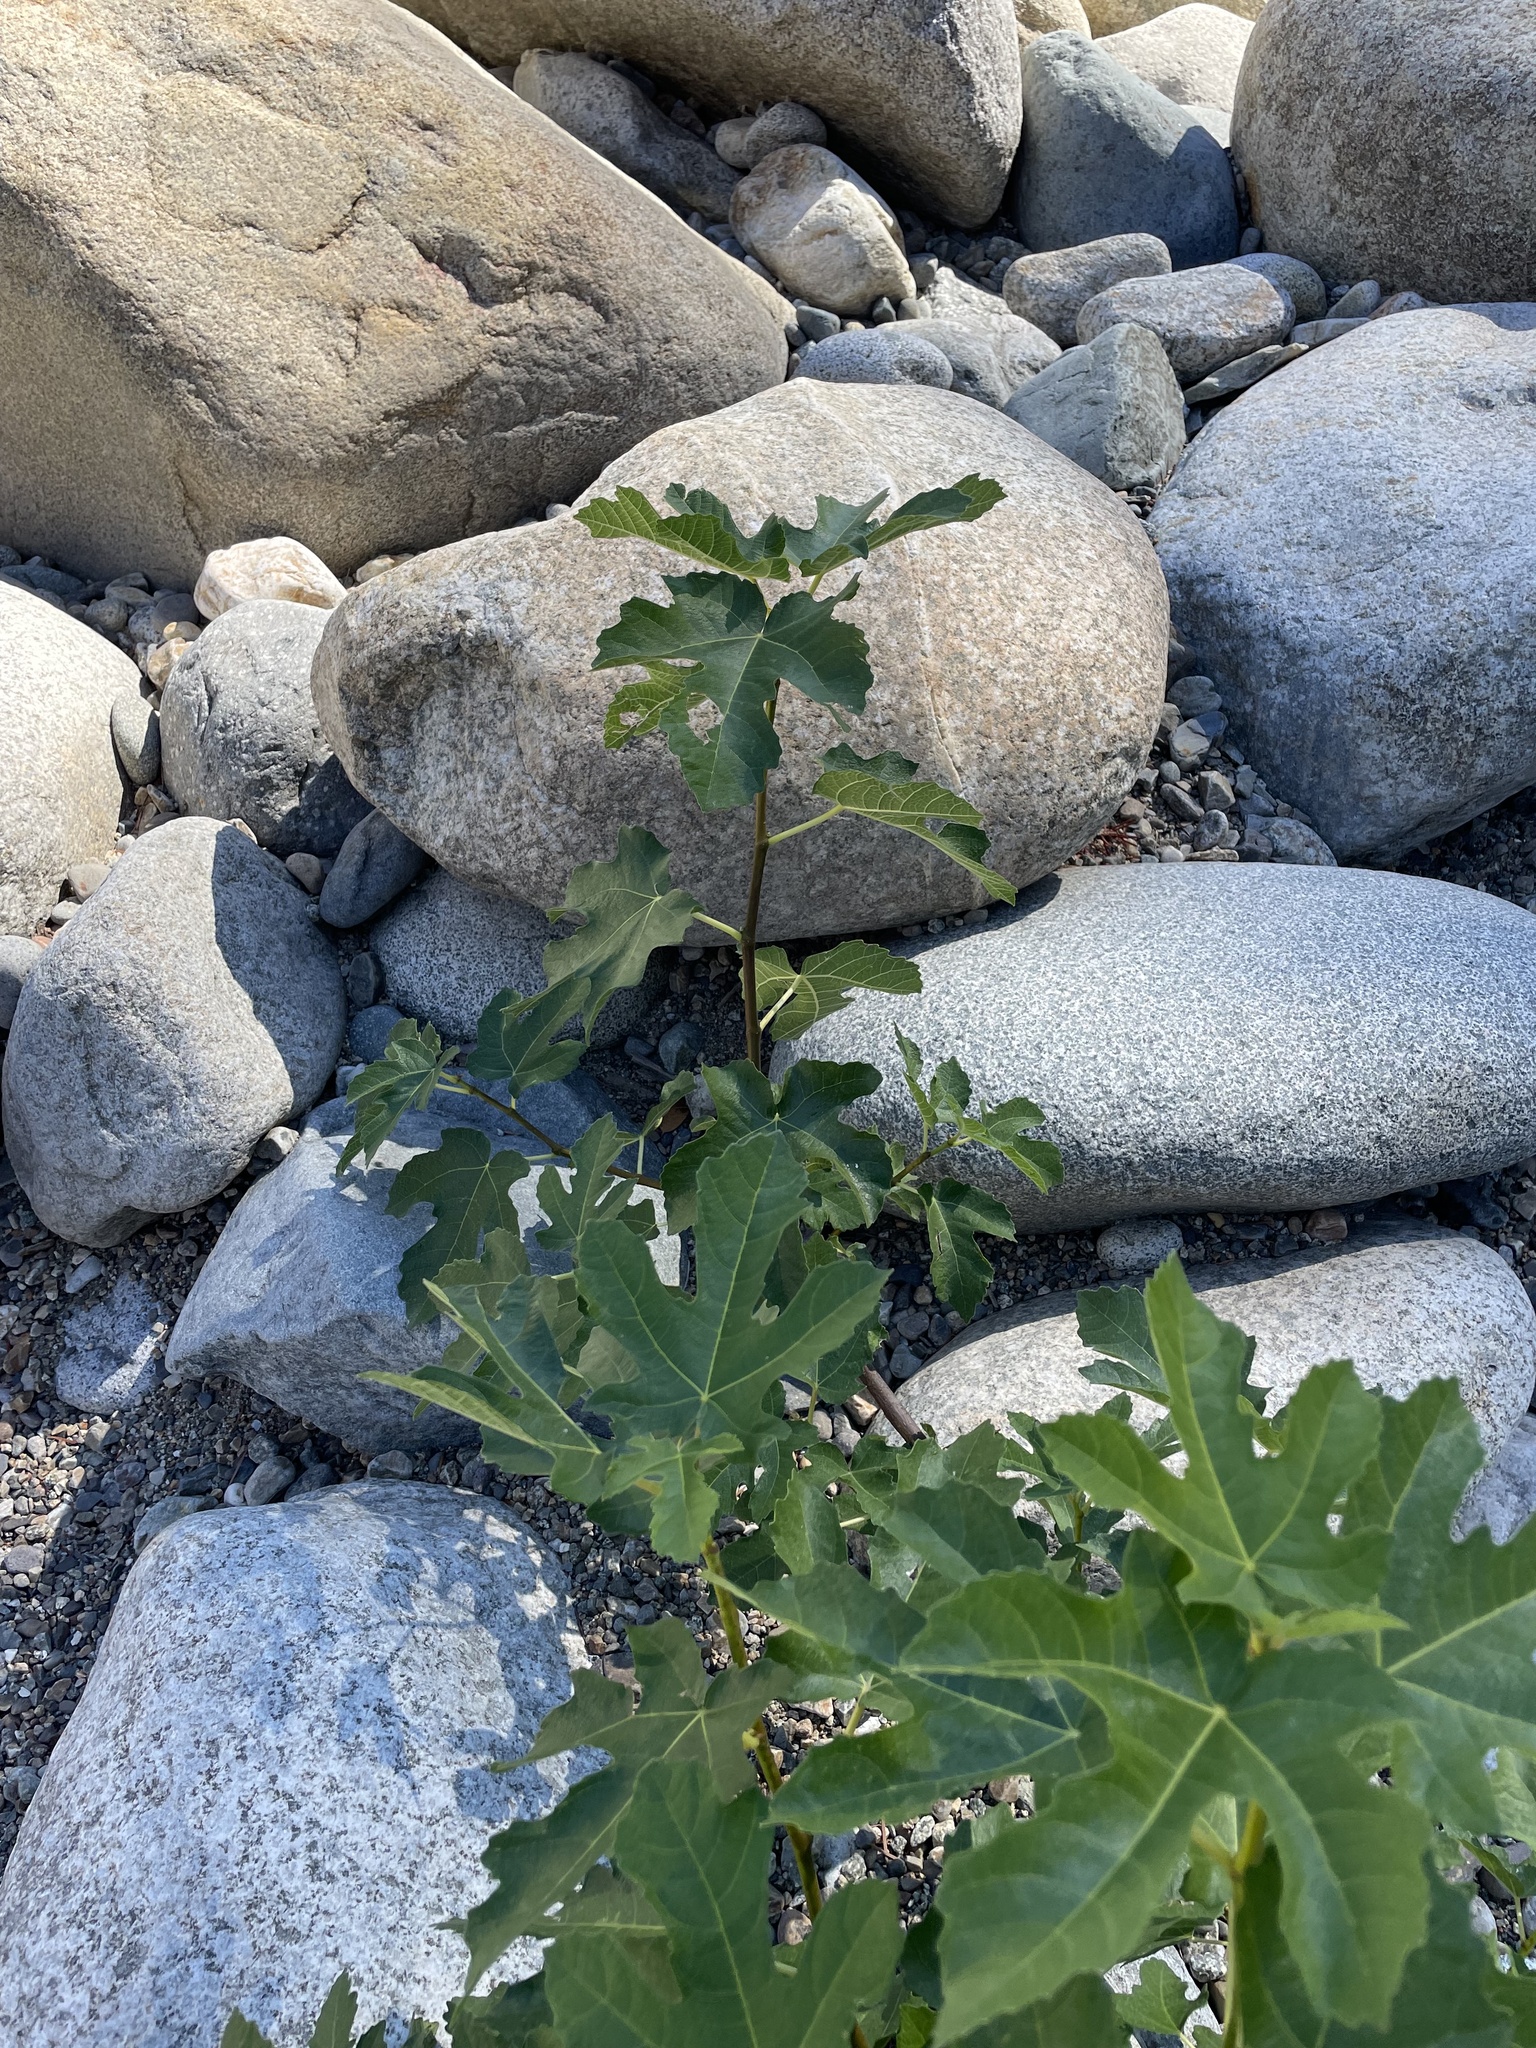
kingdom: Plantae
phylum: Tracheophyta
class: Magnoliopsida
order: Rosales
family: Moraceae
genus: Ficus
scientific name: Ficus carica
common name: Fig
